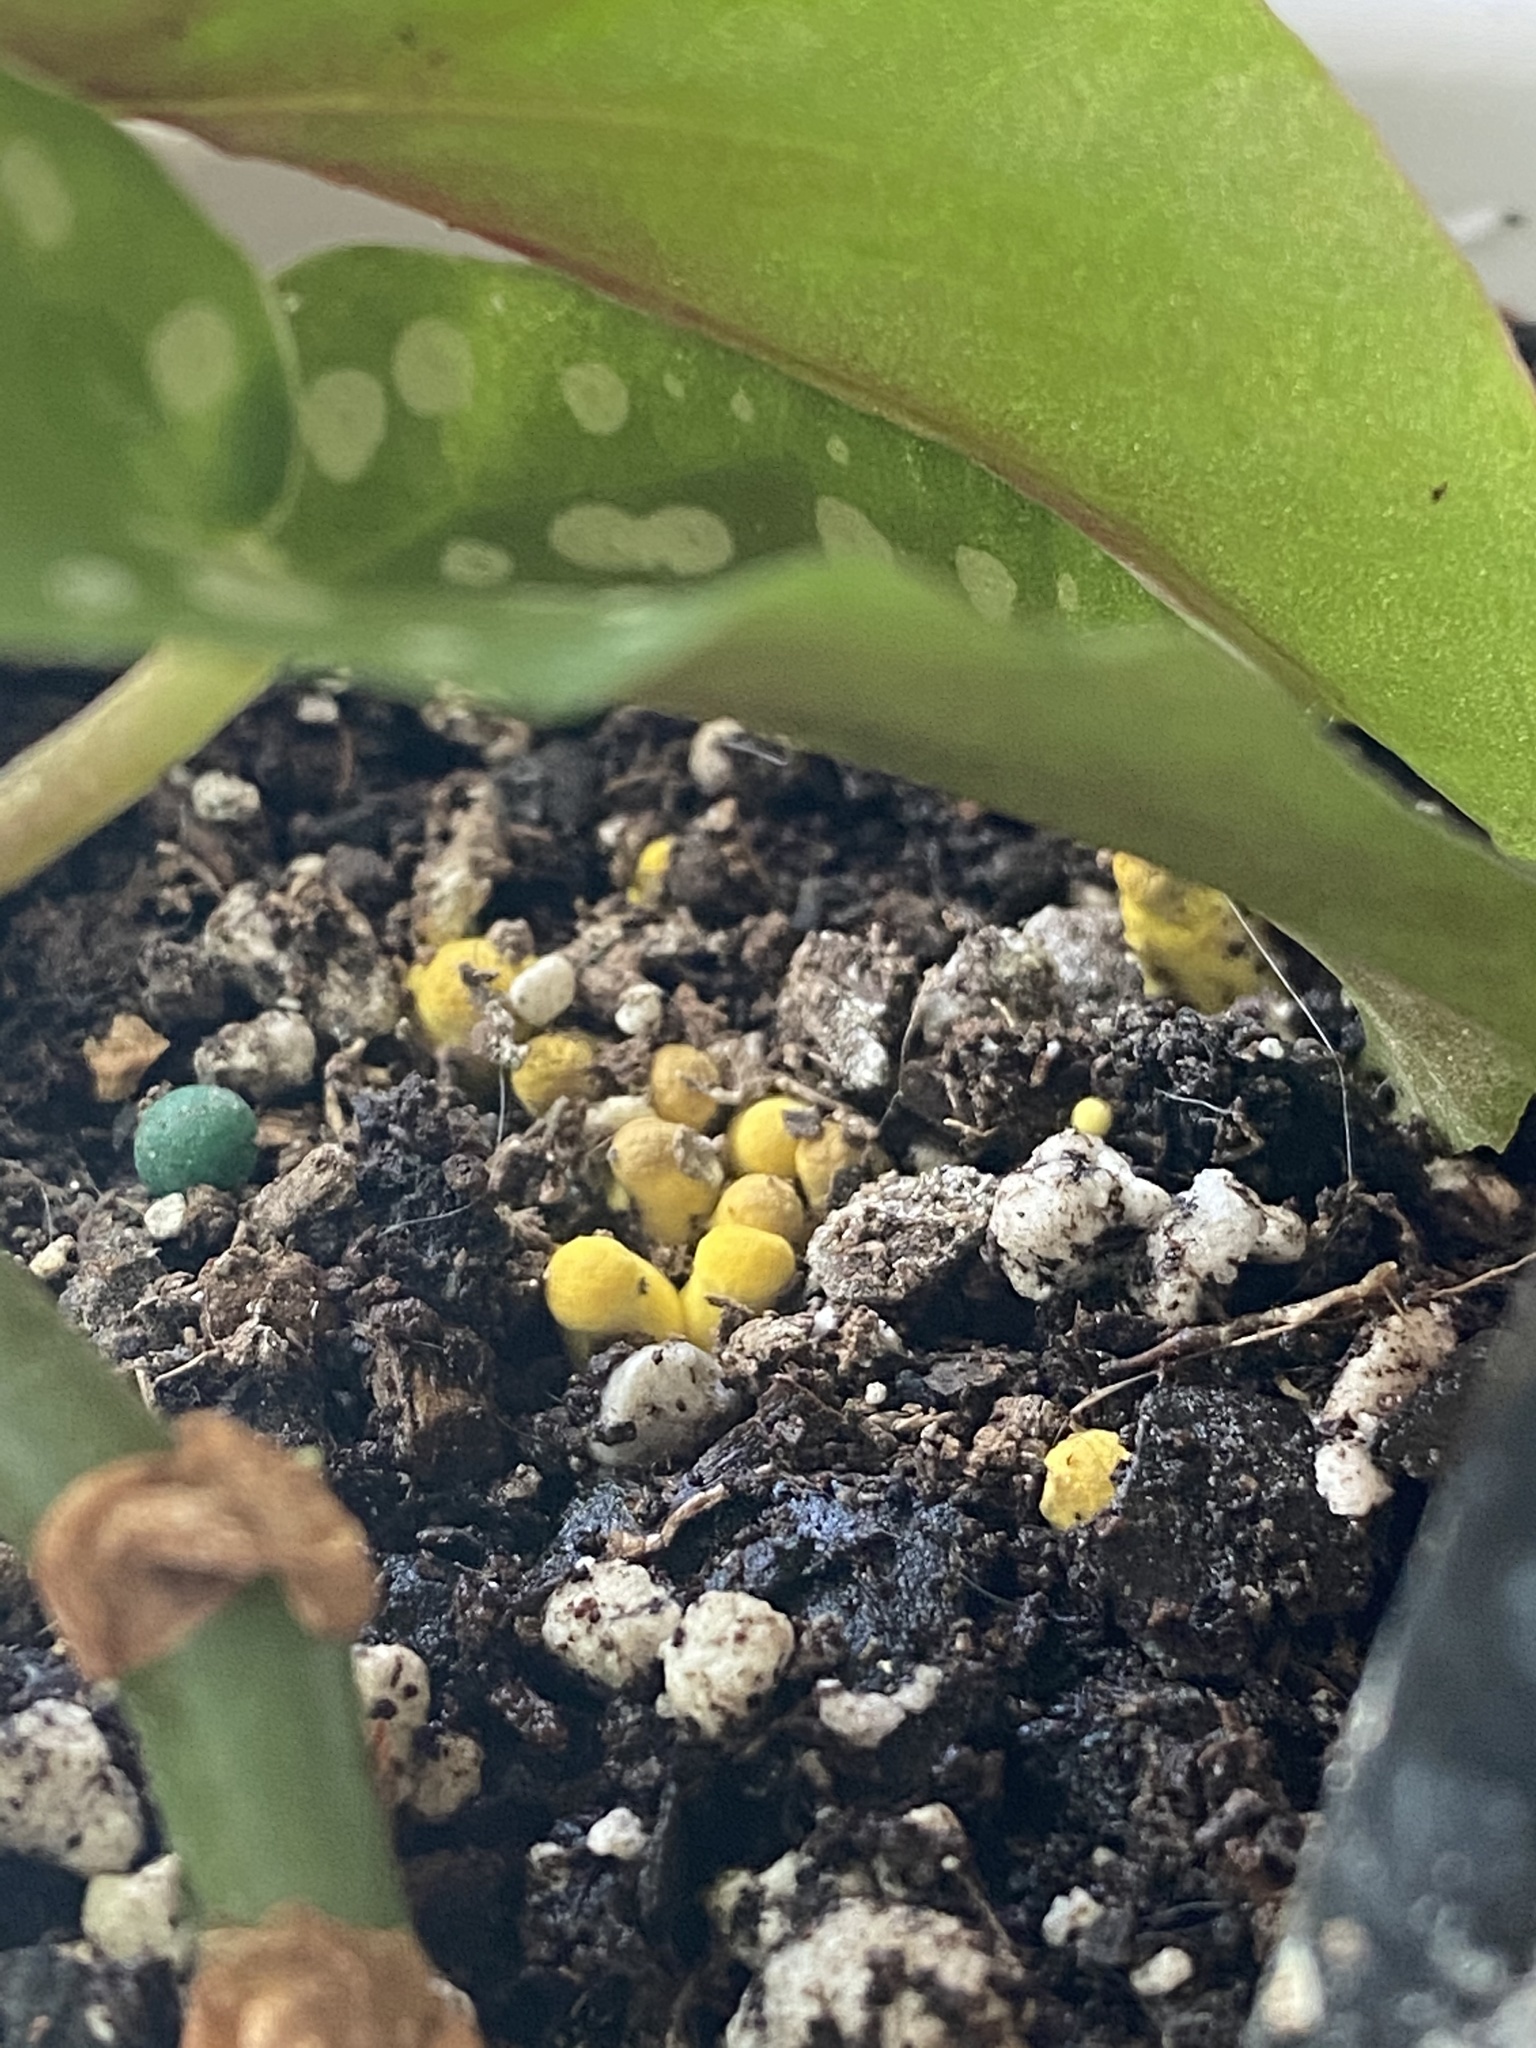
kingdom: Fungi
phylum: Basidiomycota
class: Agaricomycetes
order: Agaricales
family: Agaricaceae
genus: Leucocoprinus
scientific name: Leucocoprinus birnbaumii
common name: Plantpot dapperling
